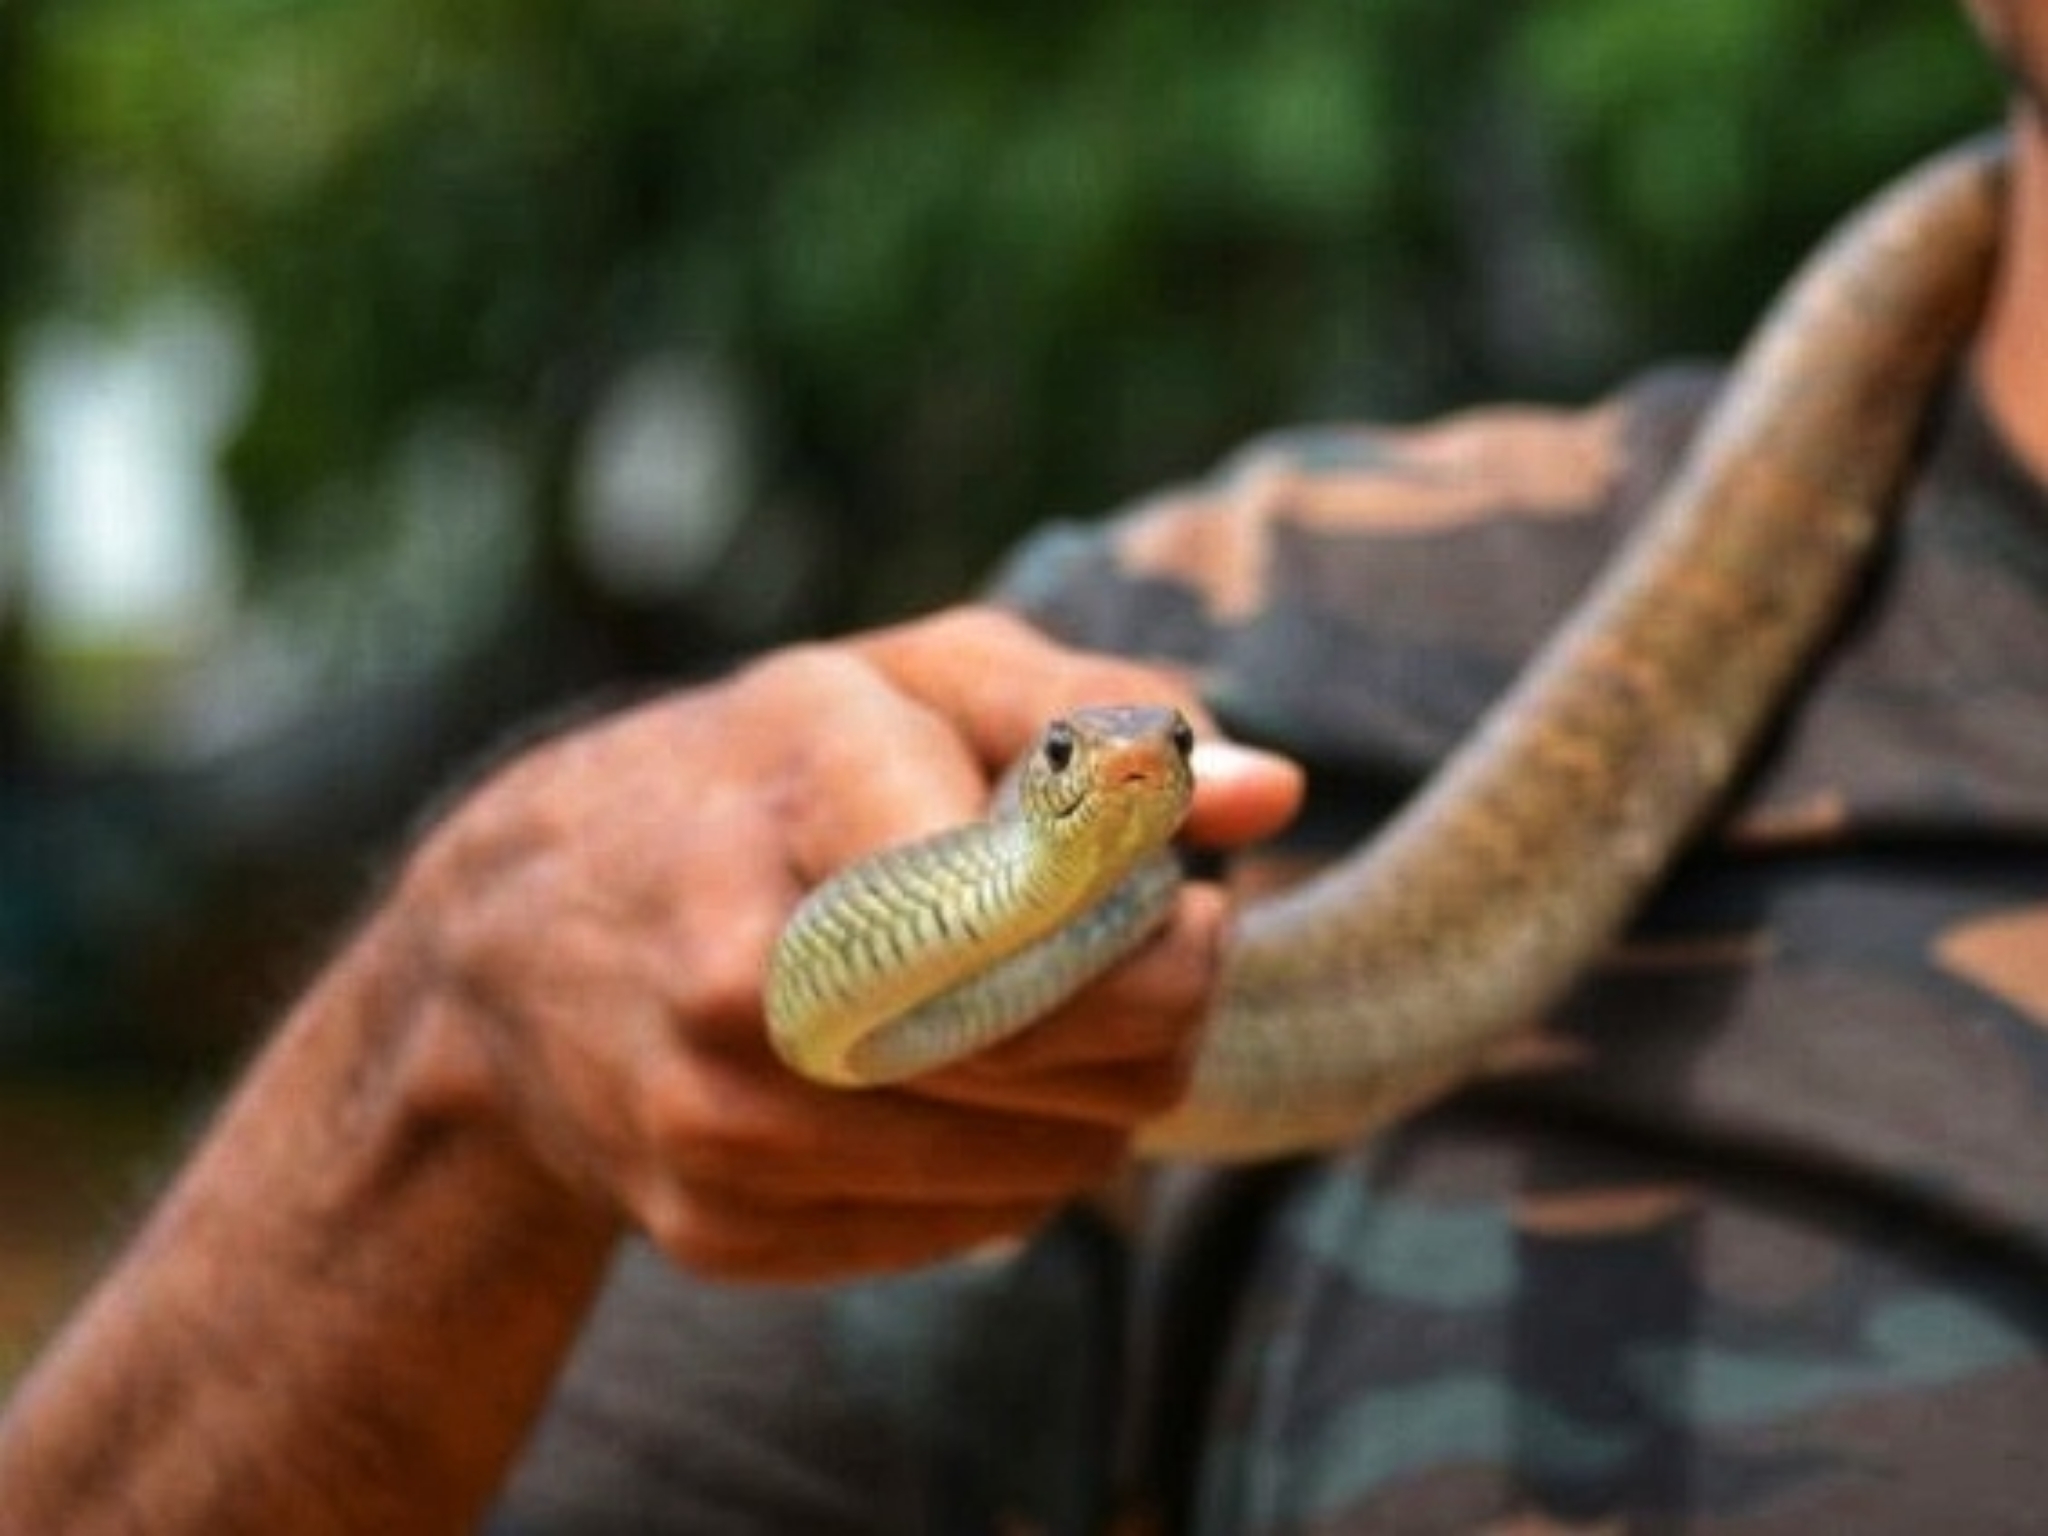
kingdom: Animalia
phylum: Chordata
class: Squamata
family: Colubridae
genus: Ptyas
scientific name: Ptyas mucosa
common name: Oriental ratsnake
